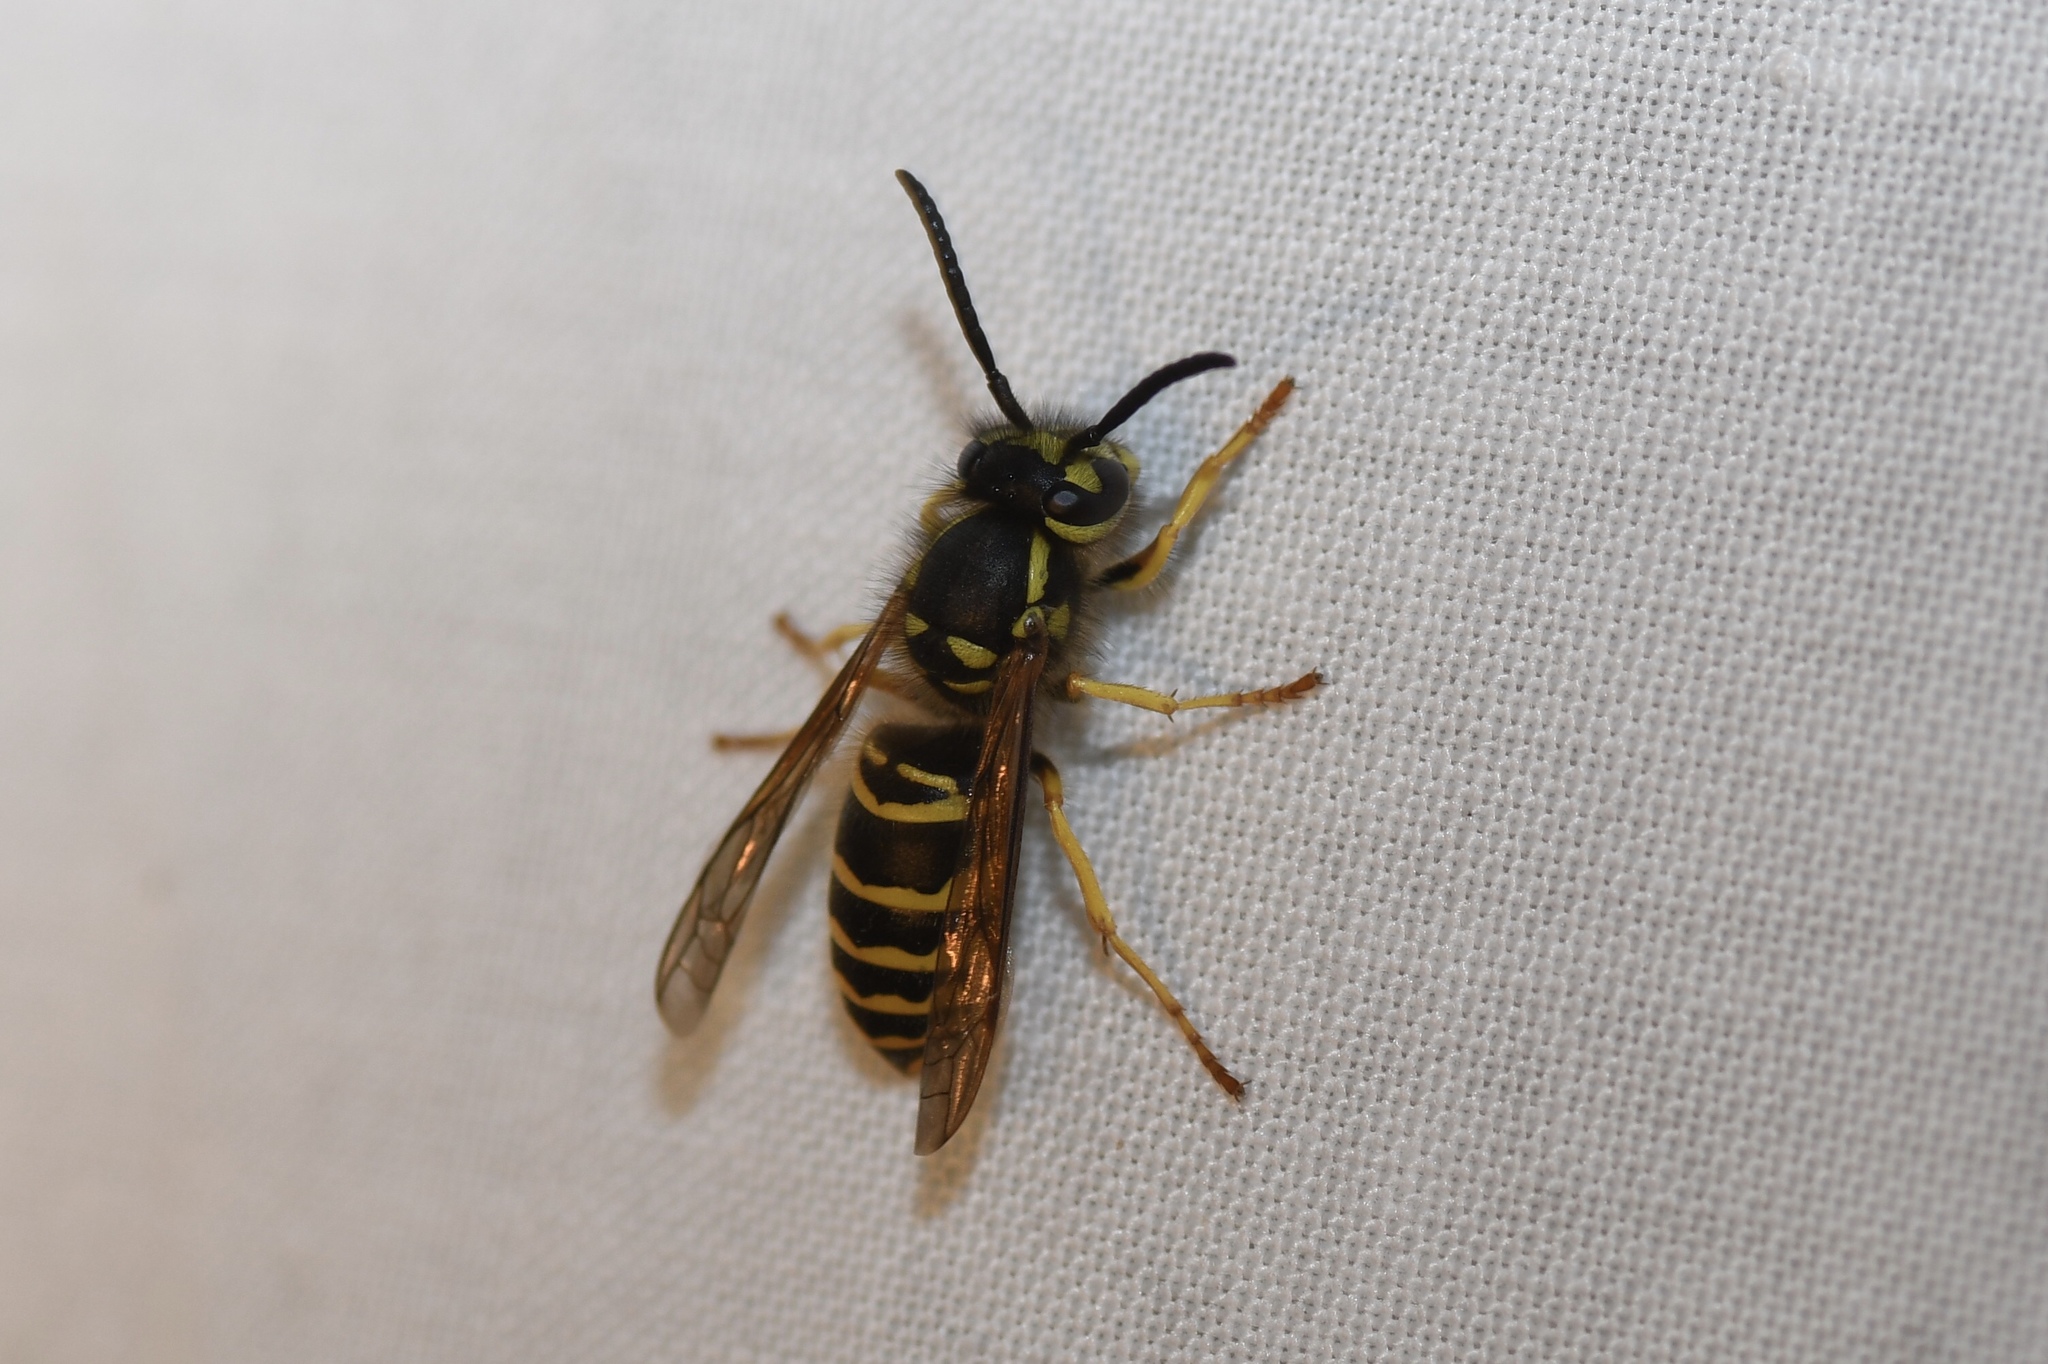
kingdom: Animalia
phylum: Arthropoda
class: Insecta
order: Hymenoptera
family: Vespidae
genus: Vespula
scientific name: Vespula maculifrons
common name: Eastern yellowjacket
